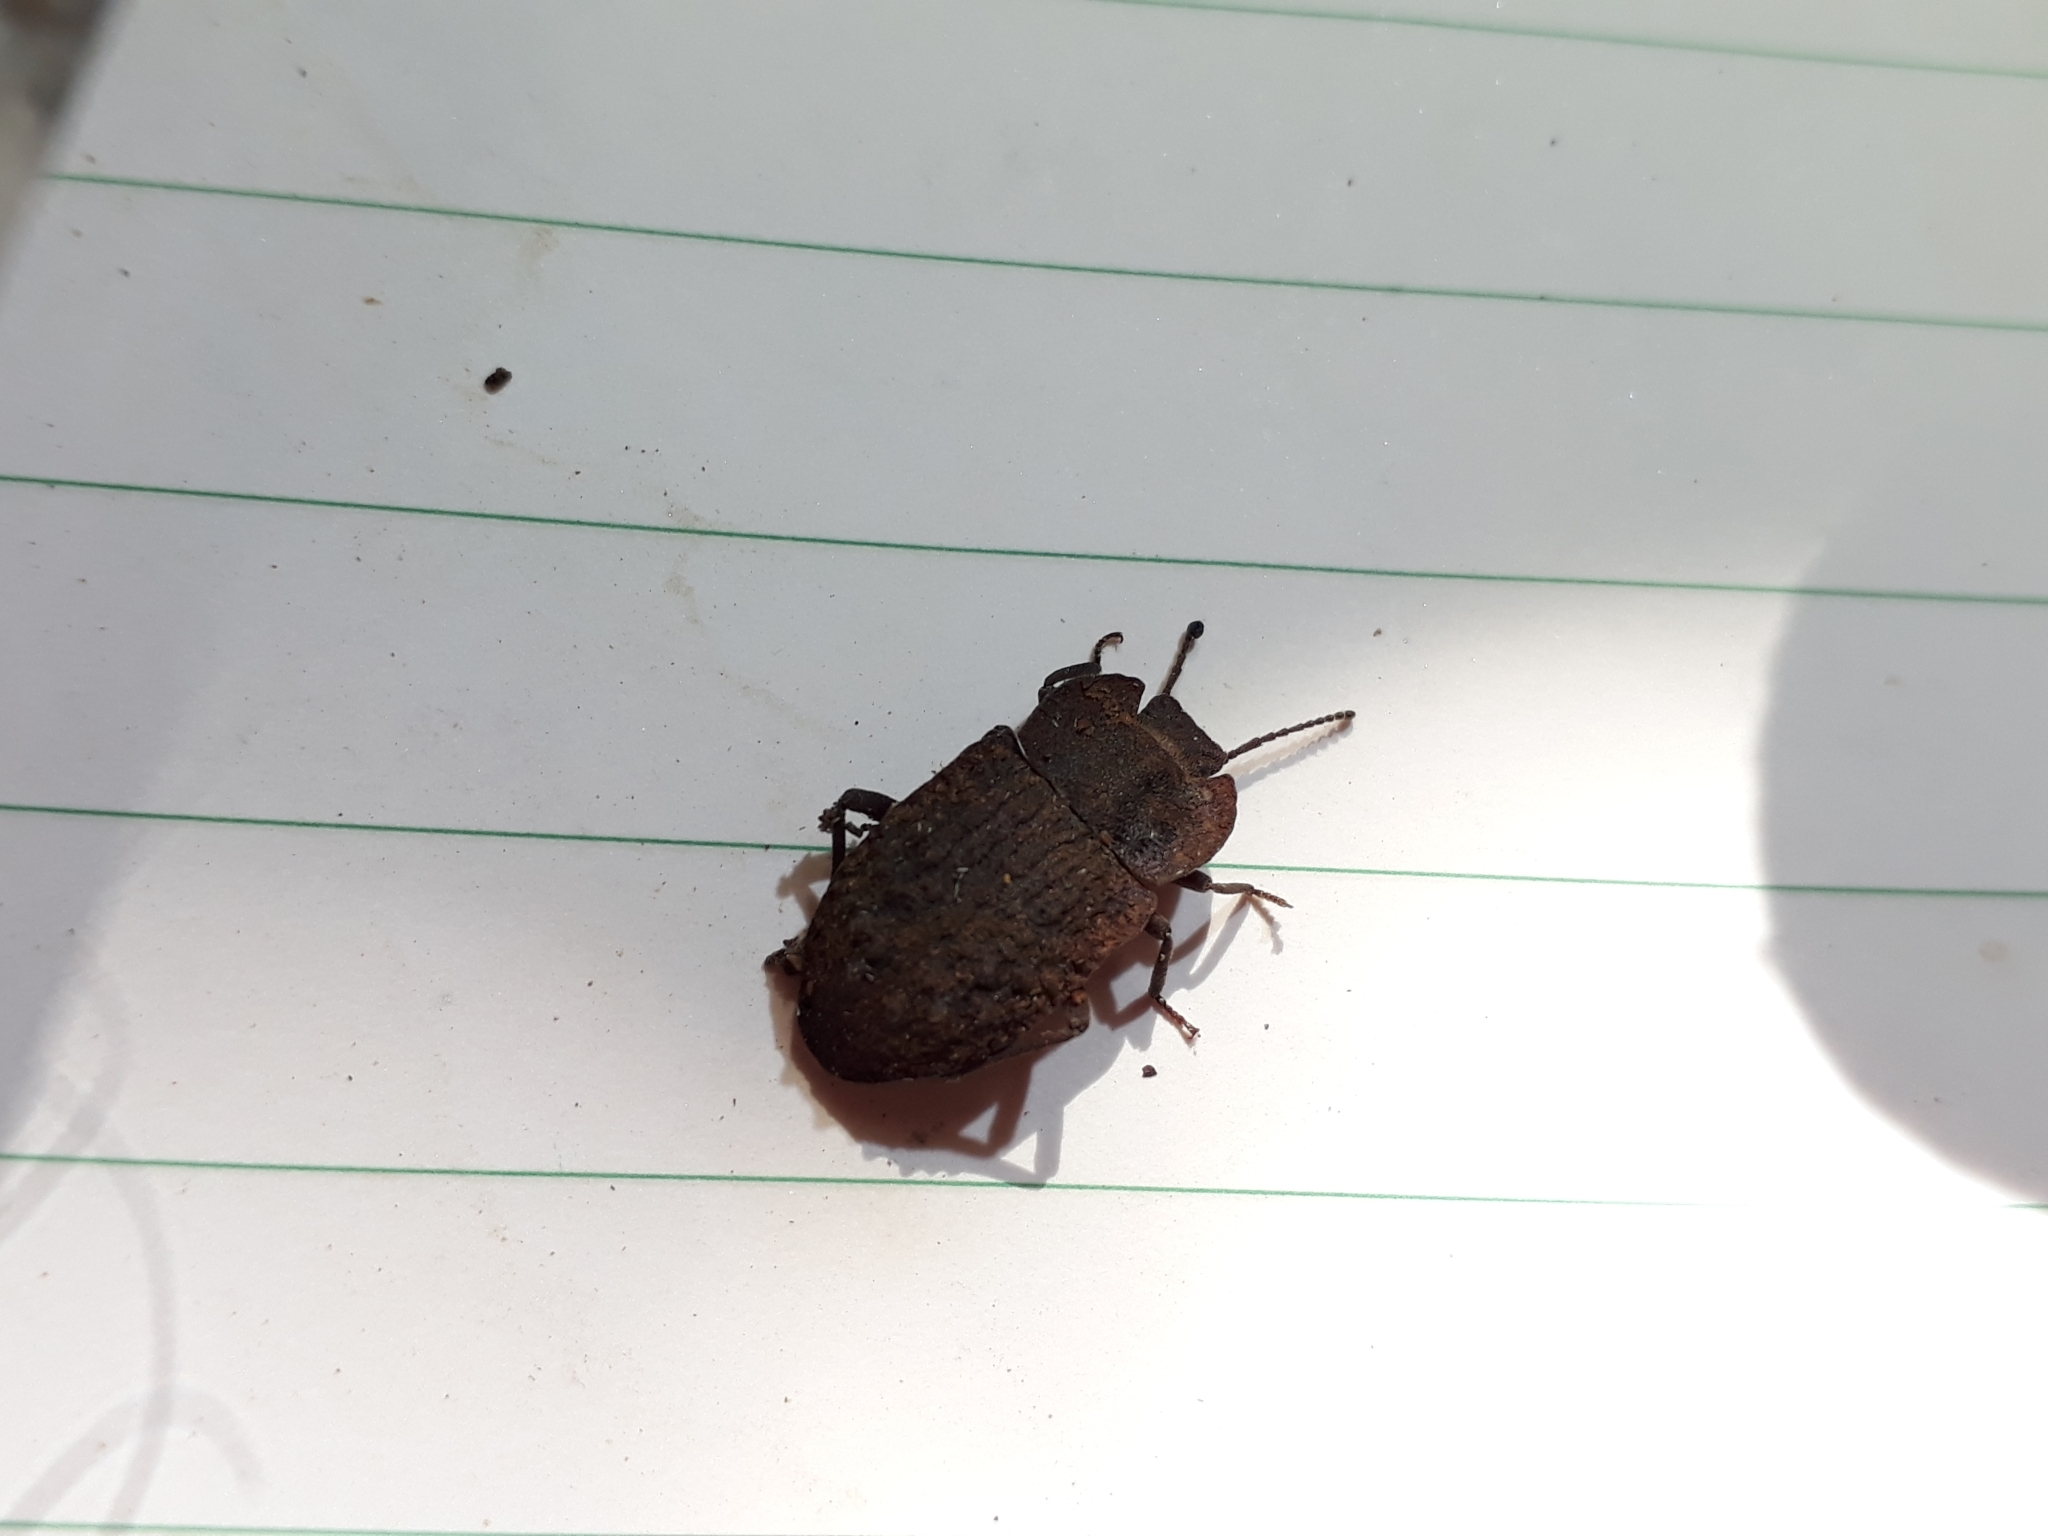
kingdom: Animalia
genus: Mitua
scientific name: Mitua
